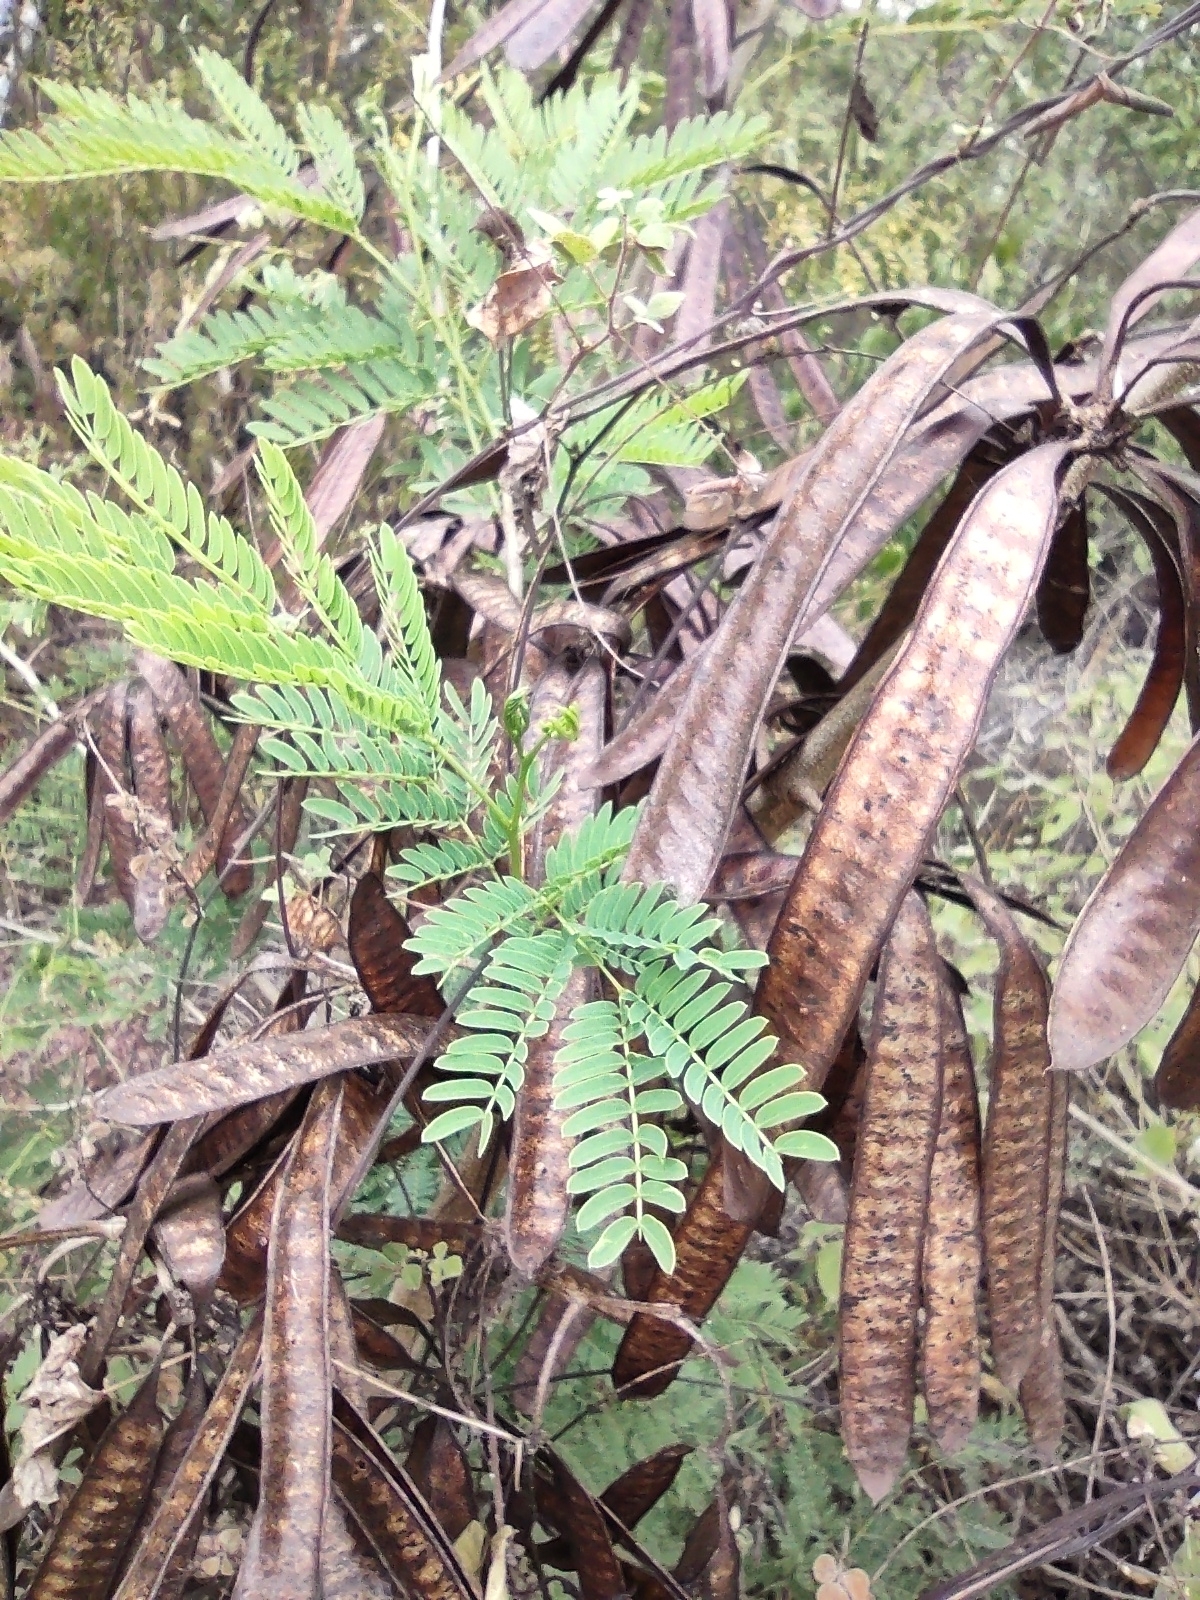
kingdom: Plantae
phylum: Tracheophyta
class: Magnoliopsida
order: Fabales
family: Fabaceae
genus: Leucaena
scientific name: Leucaena leucocephala
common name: White leadtree
